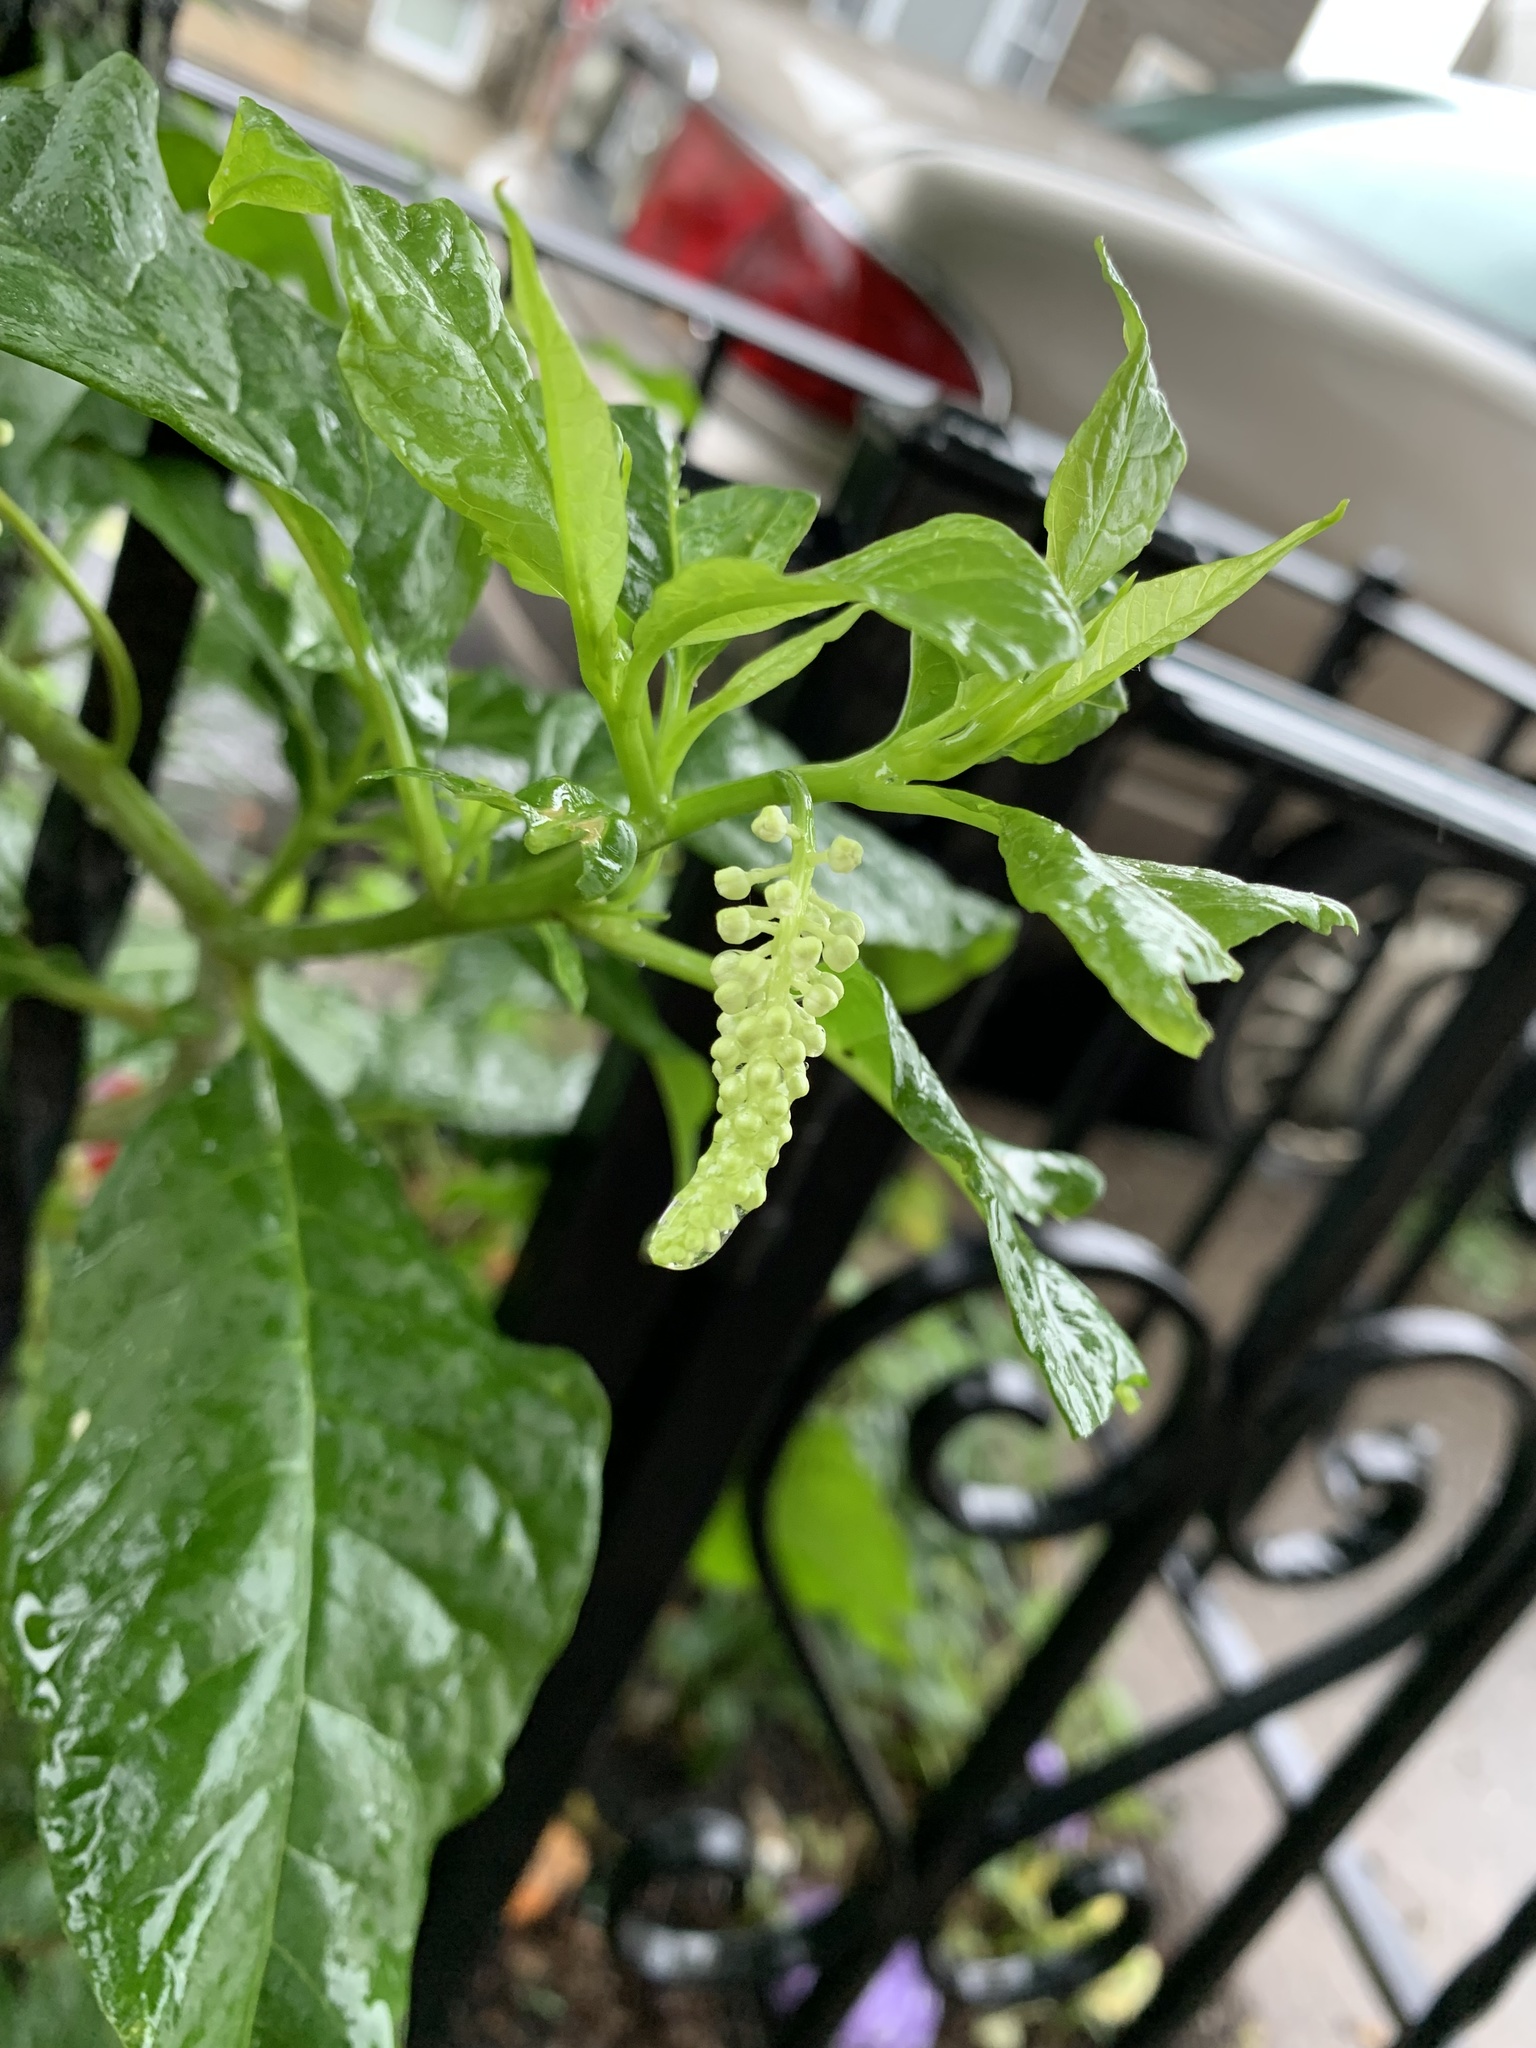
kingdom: Plantae
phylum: Tracheophyta
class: Magnoliopsida
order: Caryophyllales
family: Phytolaccaceae
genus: Phytolacca
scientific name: Phytolacca americana
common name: American pokeweed
